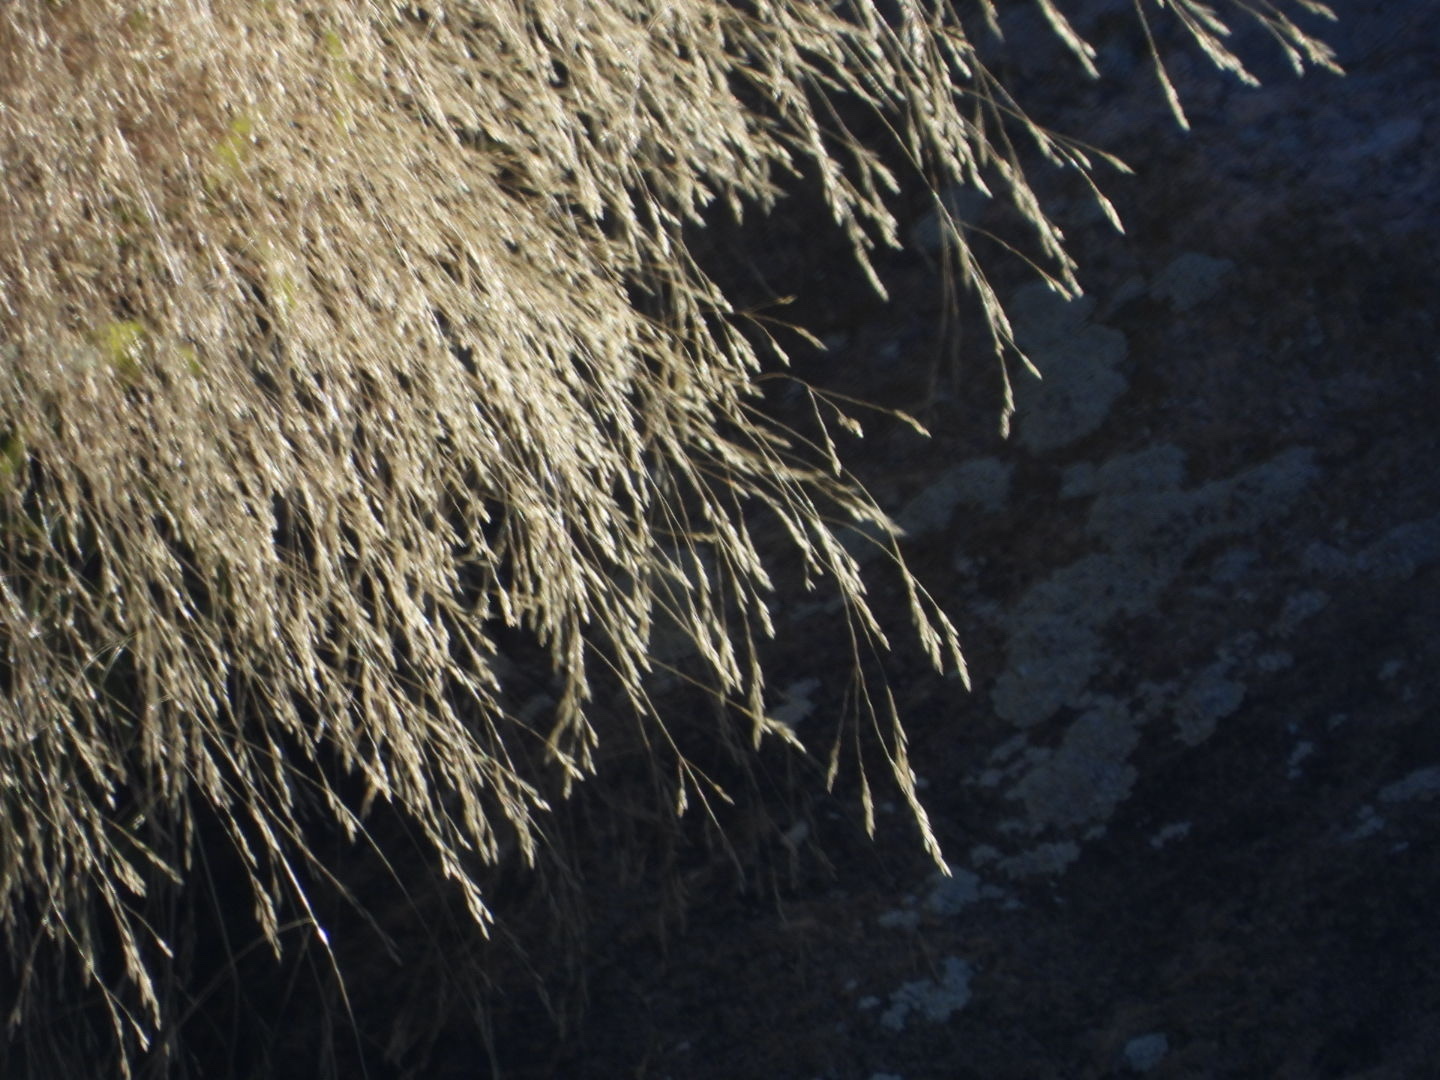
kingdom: Plantae
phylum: Tracheophyta
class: Liliopsida
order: Poales
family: Poaceae
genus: Agrostis
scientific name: Agrostis scabra
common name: Rough bent
